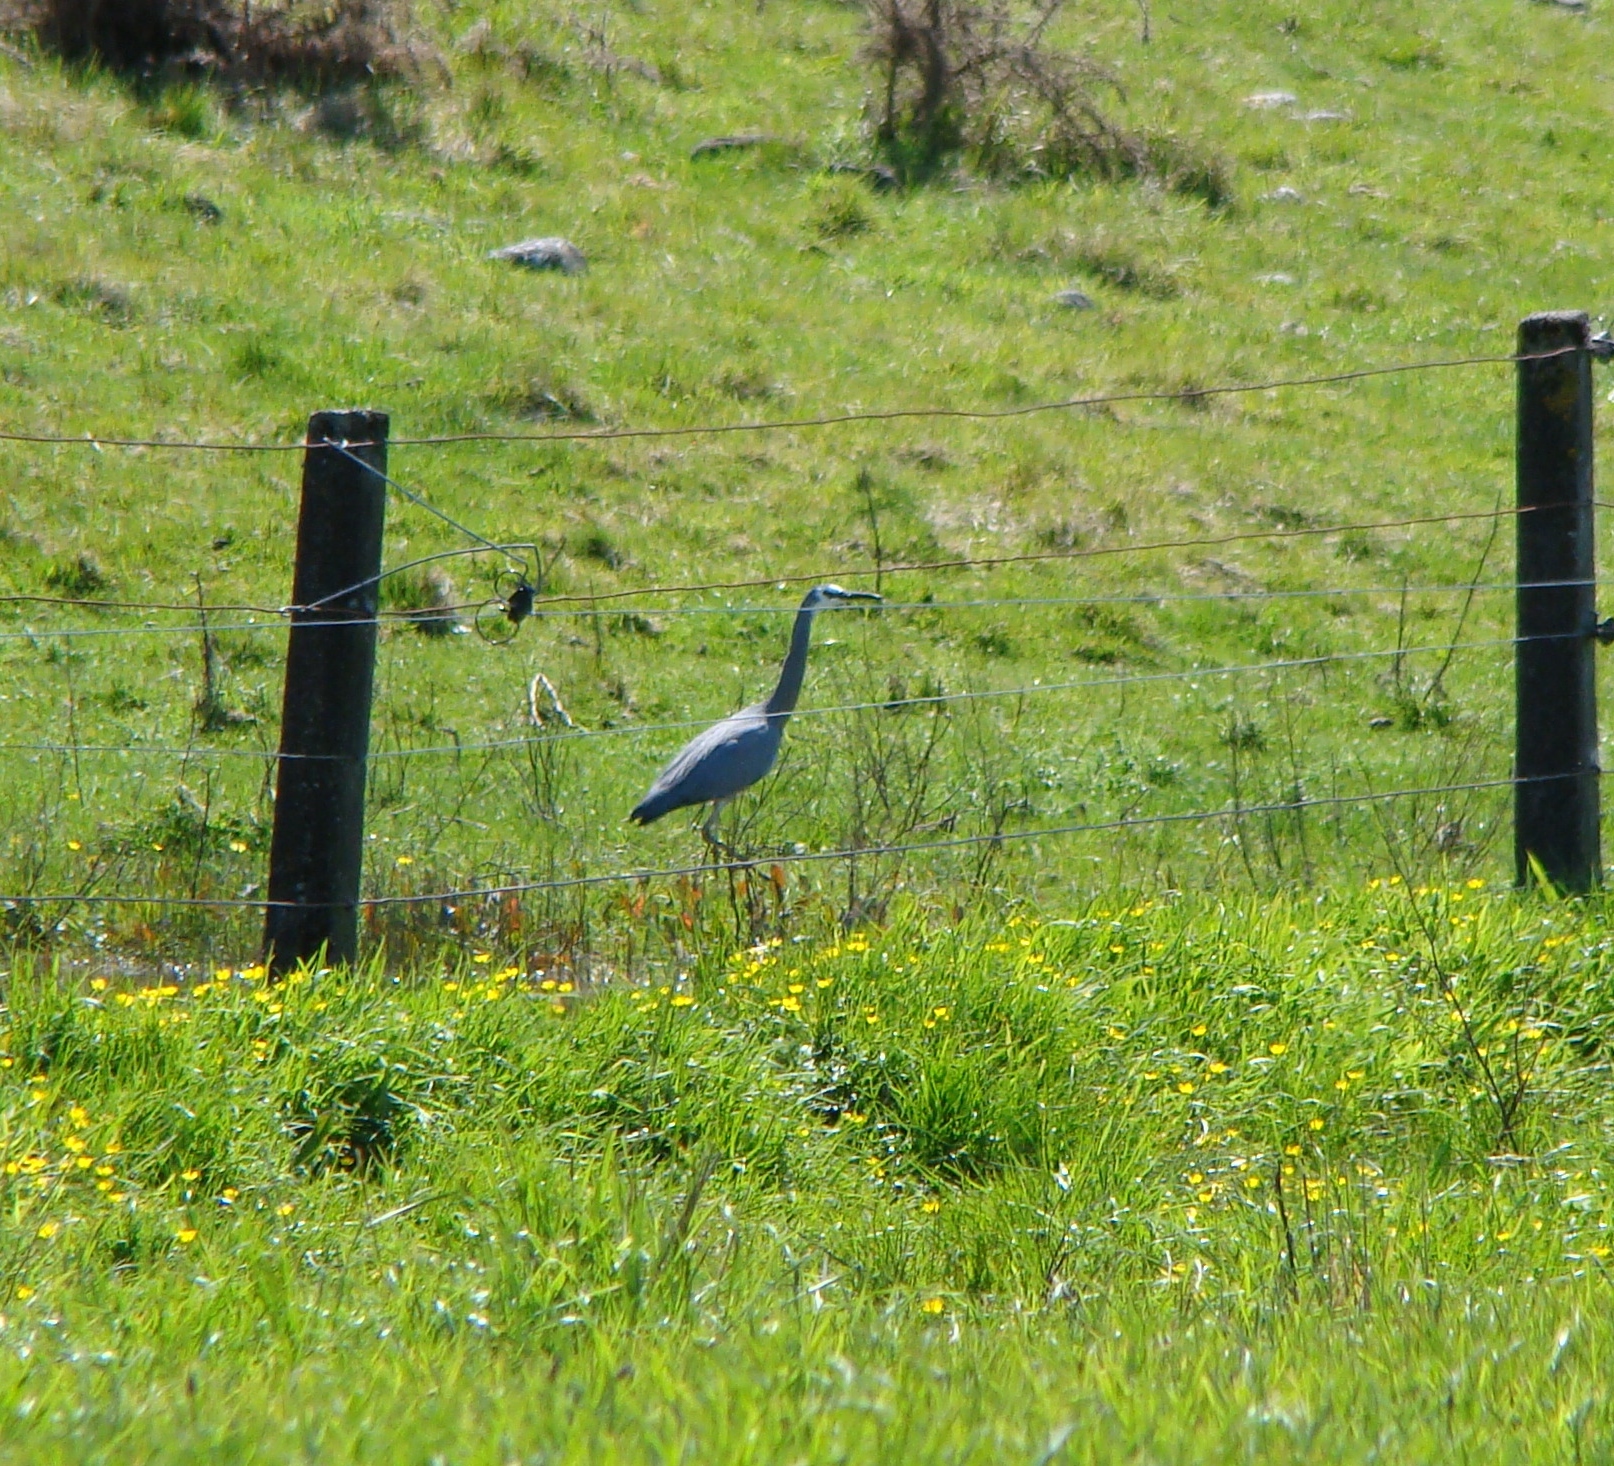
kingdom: Animalia
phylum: Chordata
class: Aves
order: Pelecaniformes
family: Ardeidae
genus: Egretta
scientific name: Egretta novaehollandiae
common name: White-faced heron
